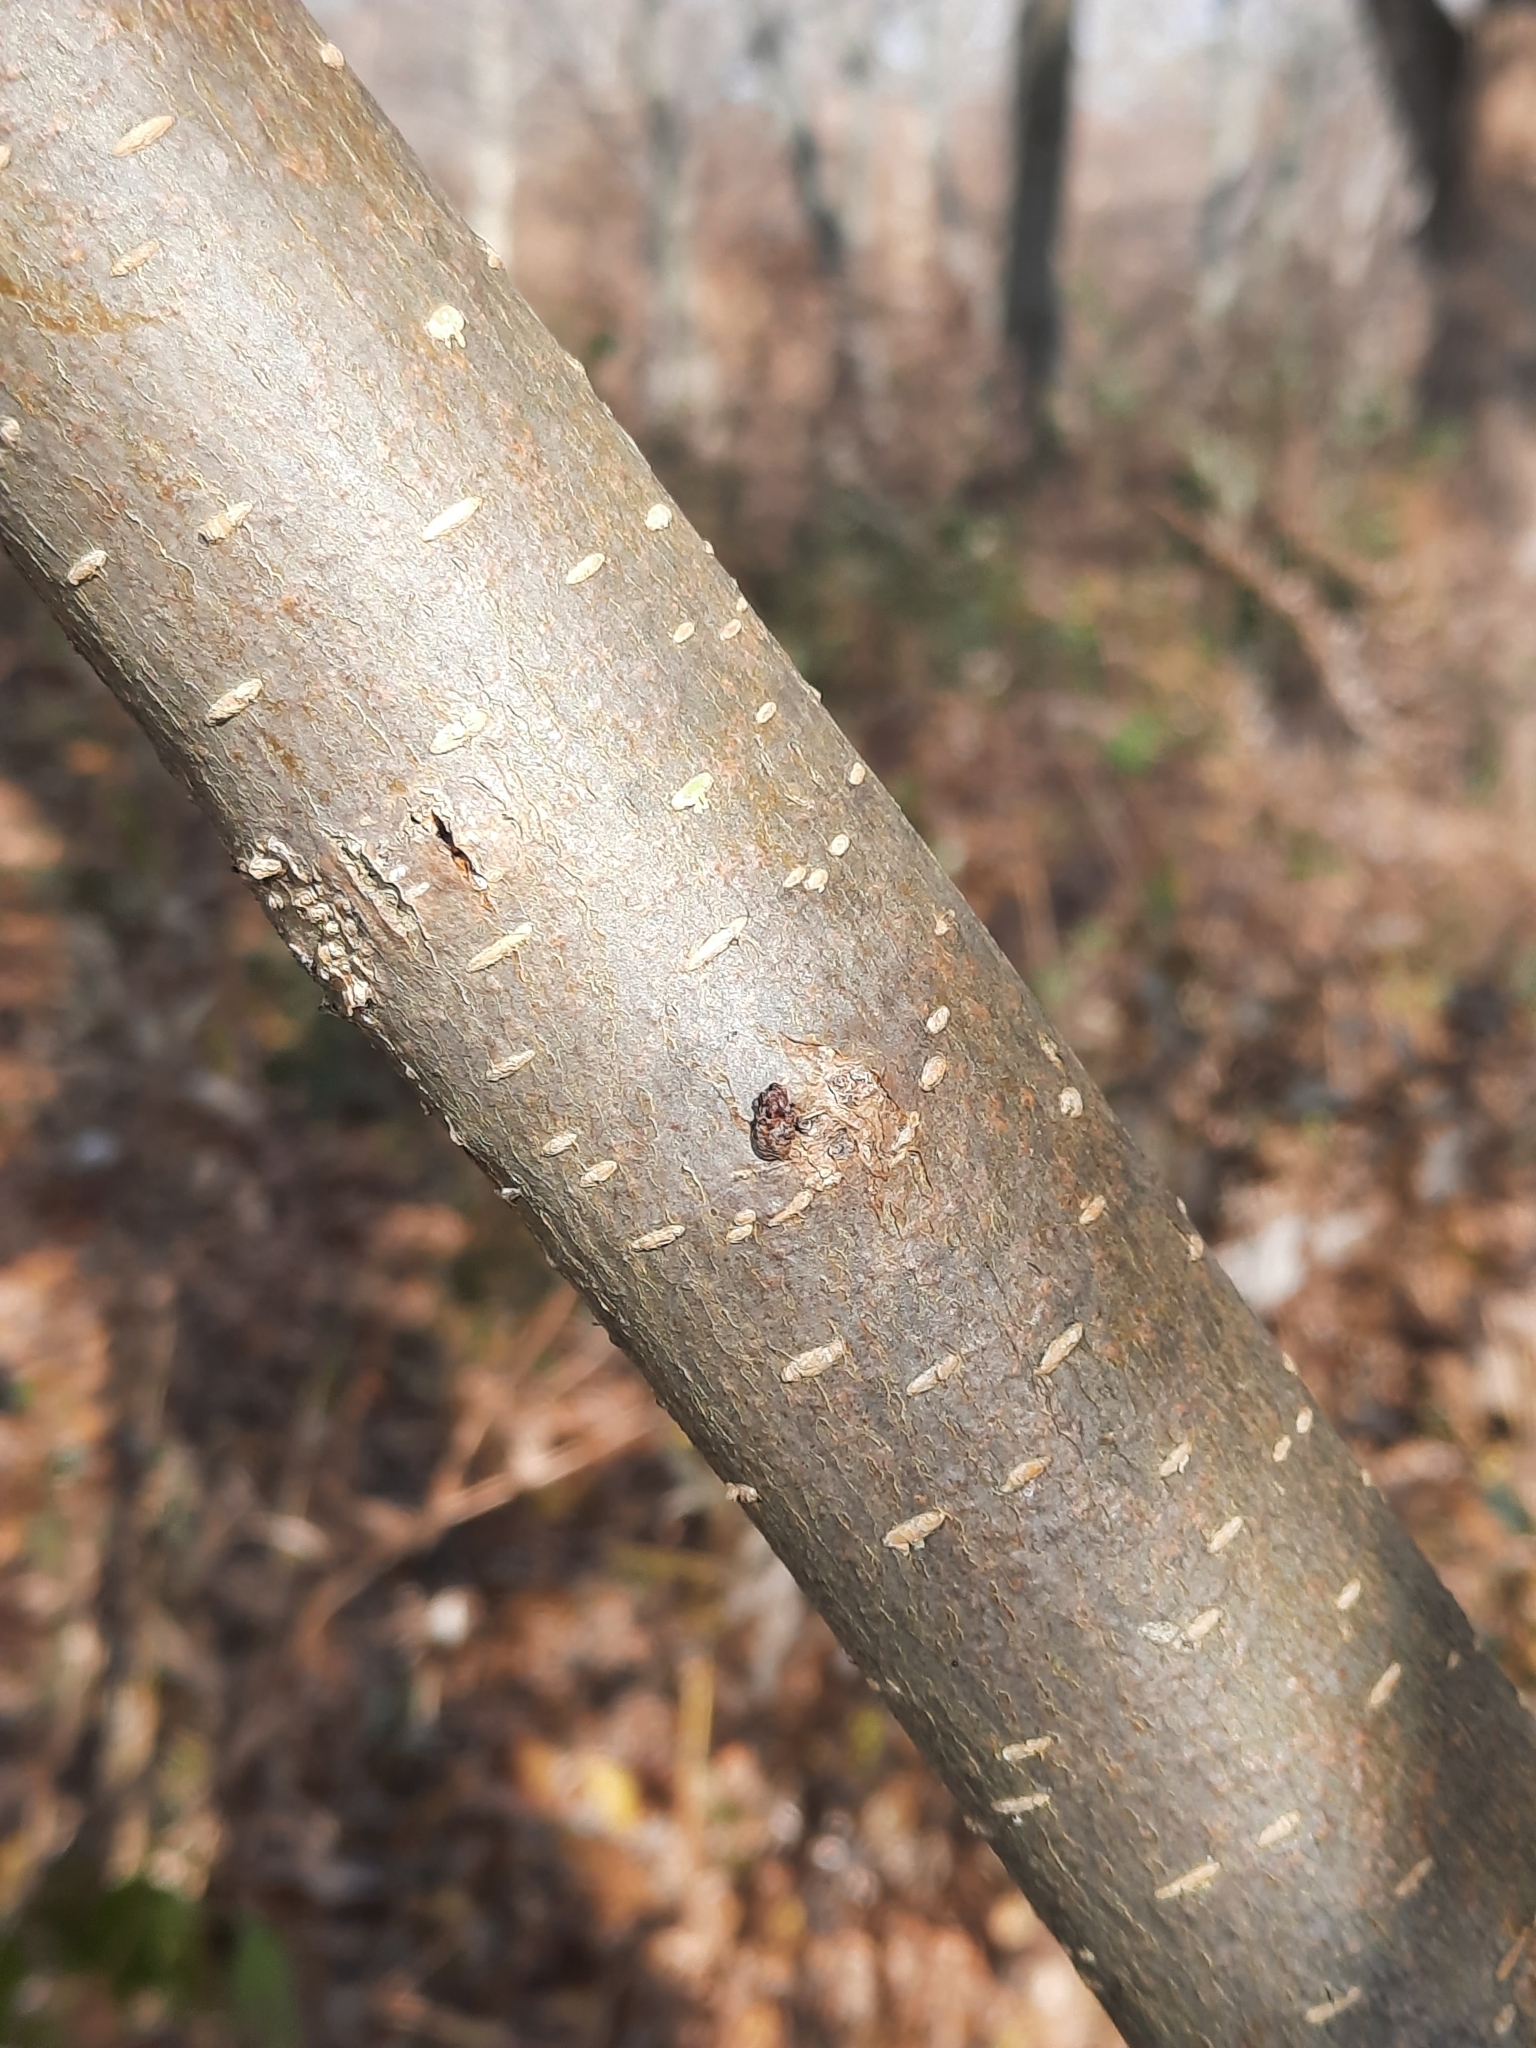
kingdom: Plantae
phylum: Tracheophyta
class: Magnoliopsida
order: Rosales
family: Moraceae
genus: Morus
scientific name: Morus alba
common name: White mulberry
